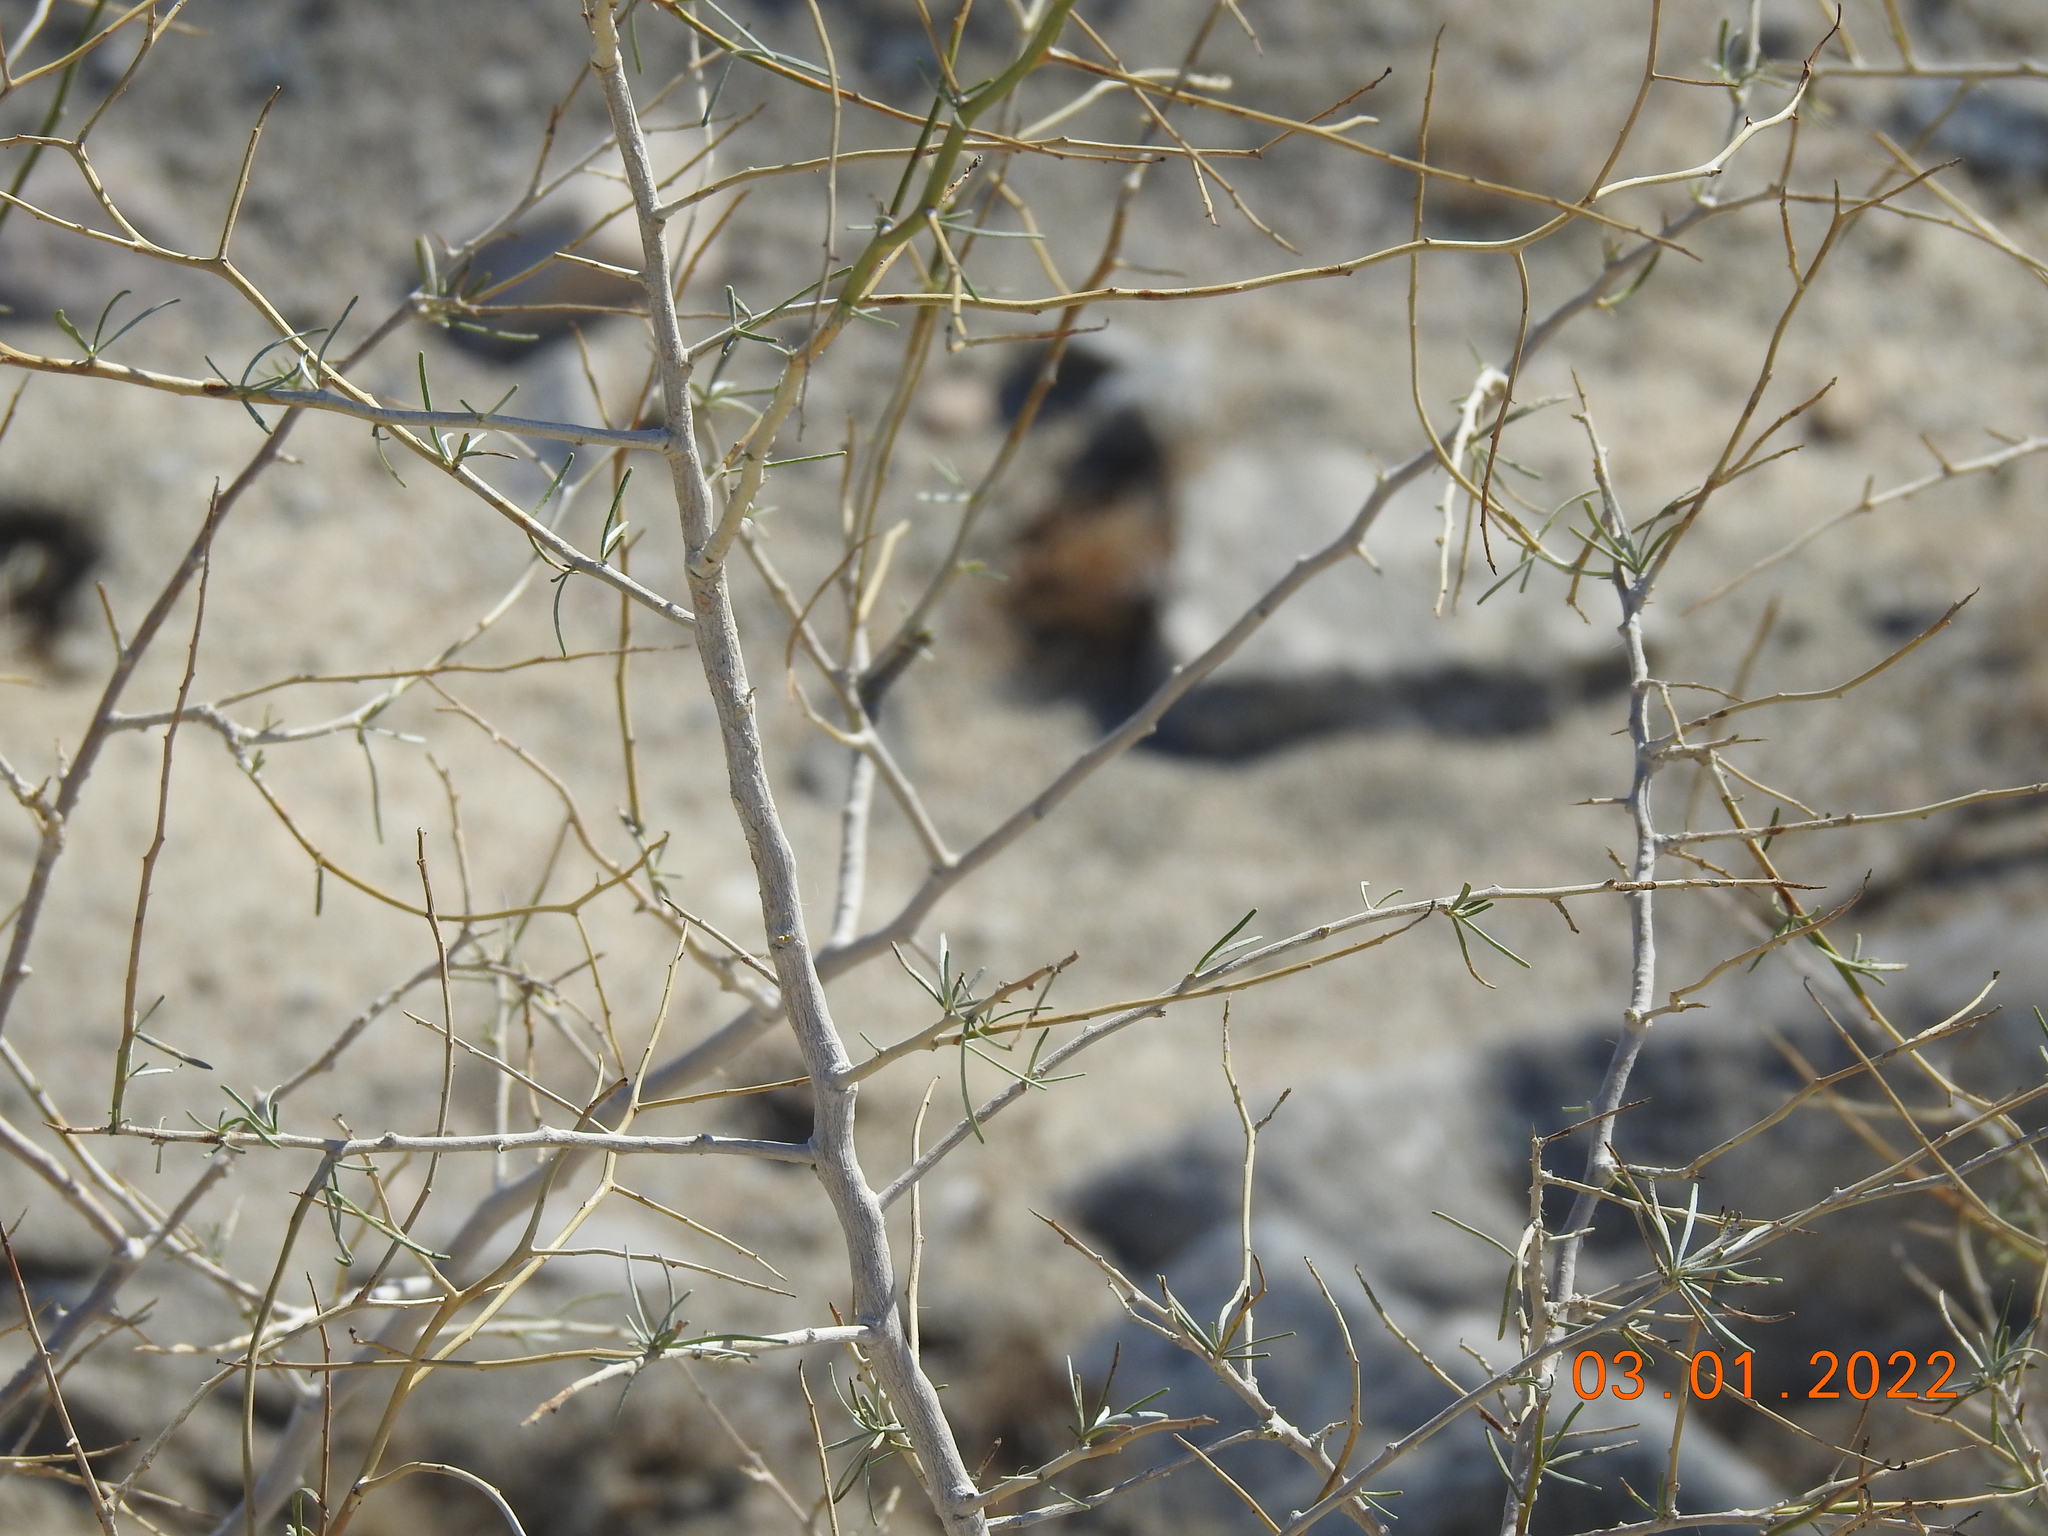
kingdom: Plantae
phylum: Tracheophyta
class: Magnoliopsida
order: Fabales
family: Fabaceae
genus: Psorothamnus
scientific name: Psorothamnus schottii
